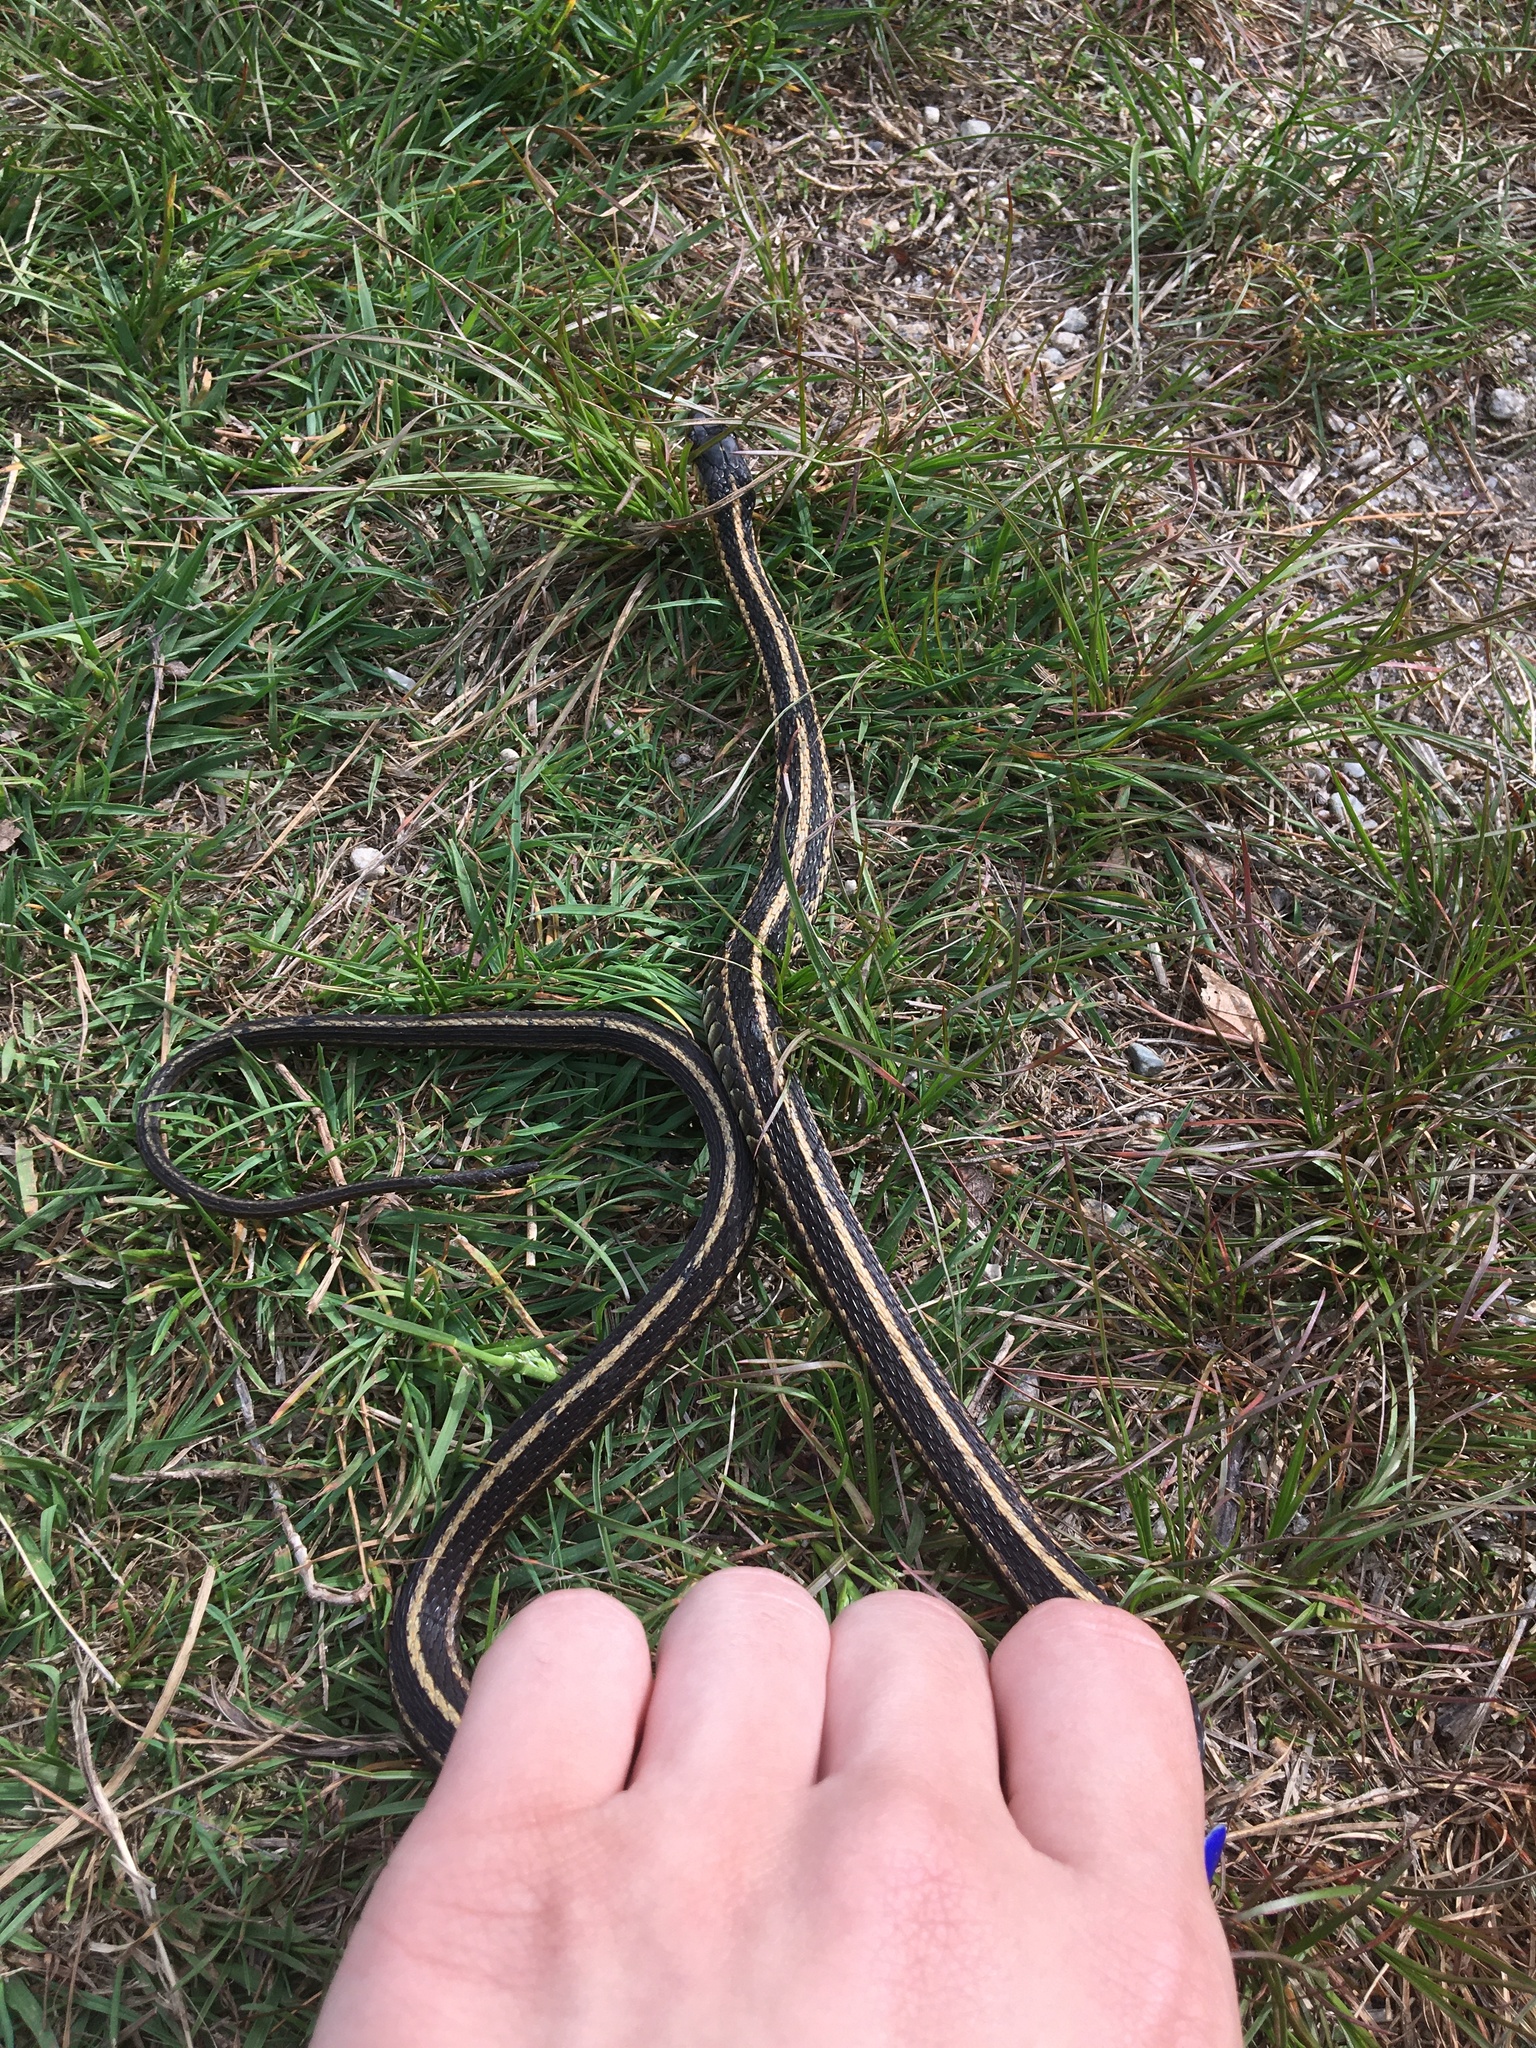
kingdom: Animalia
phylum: Chordata
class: Squamata
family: Colubridae
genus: Thamnophis
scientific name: Thamnophis sirtalis
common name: Common garter snake
